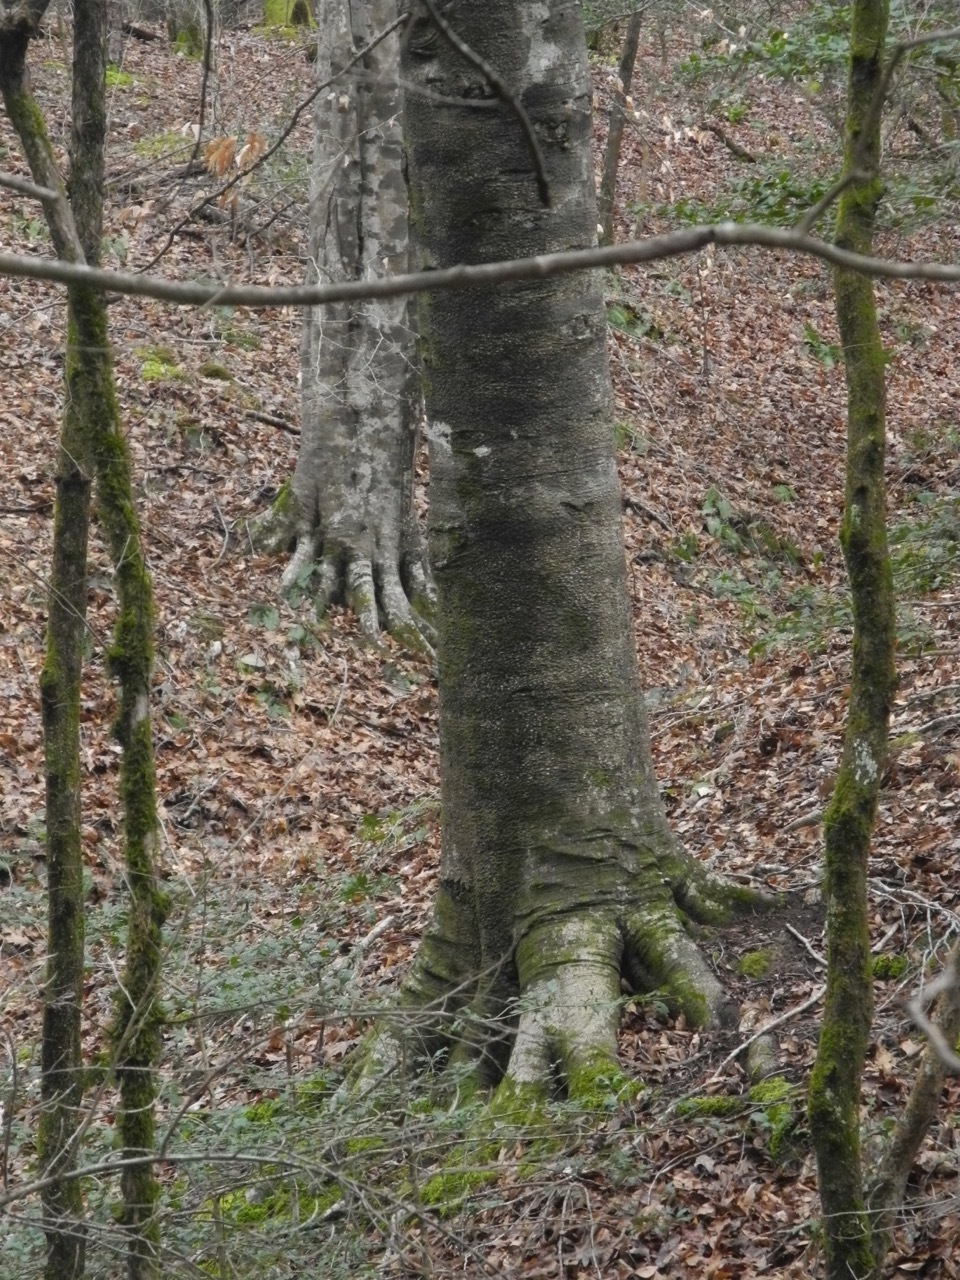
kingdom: Plantae
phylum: Tracheophyta
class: Magnoliopsida
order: Fagales
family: Fagaceae
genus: Fagus
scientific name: Fagus grandifolia
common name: American beech
